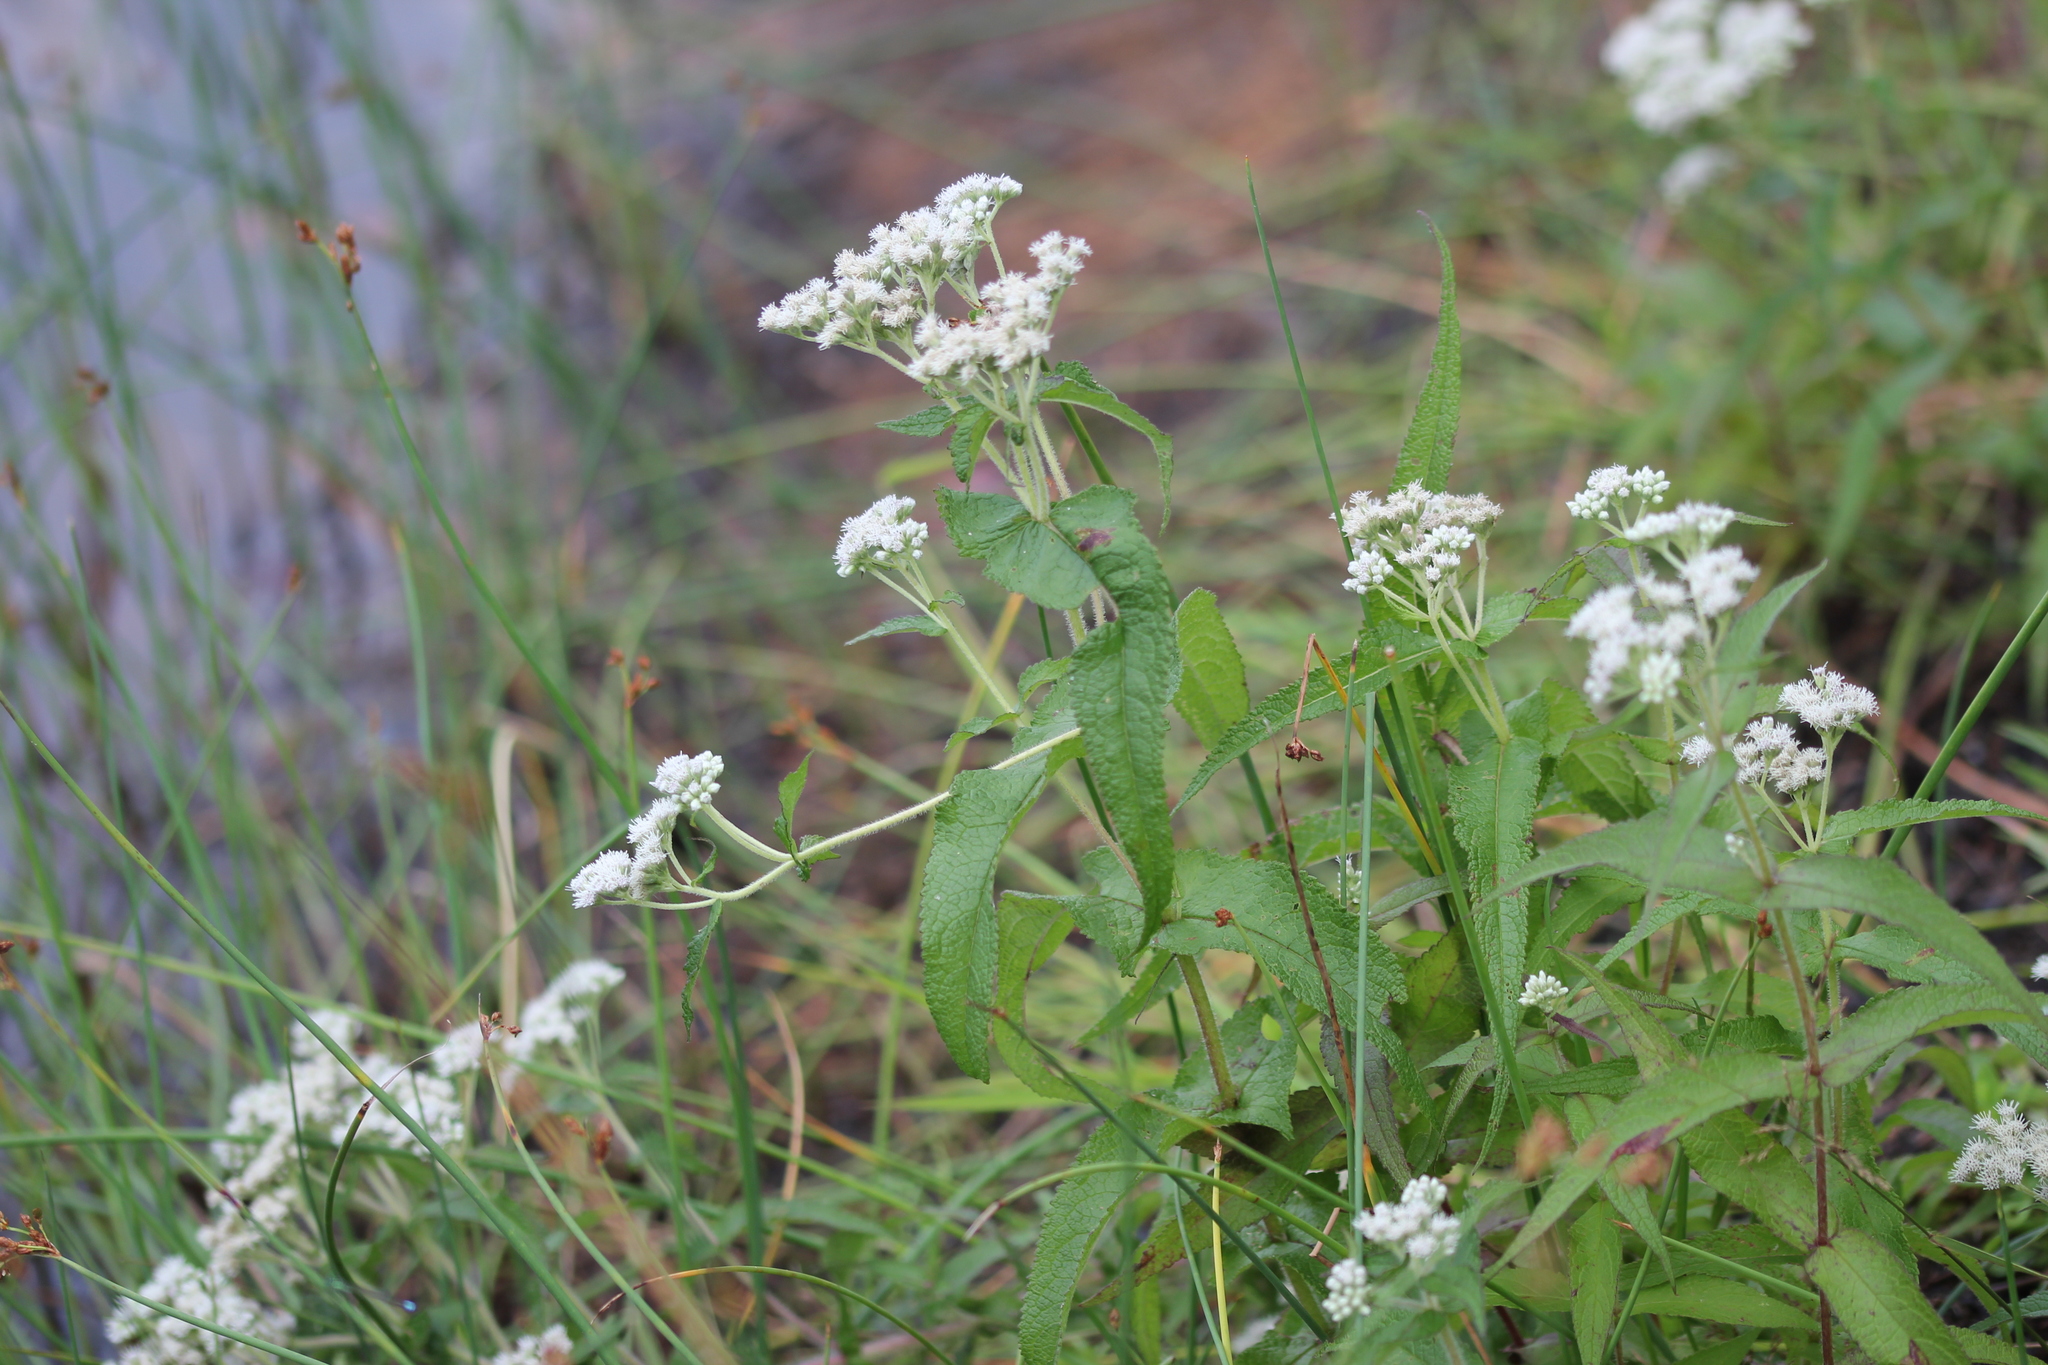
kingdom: Plantae
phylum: Tracheophyta
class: Magnoliopsida
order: Asterales
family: Asteraceae
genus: Eupatorium
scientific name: Eupatorium perfoliatum
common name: Boneset
